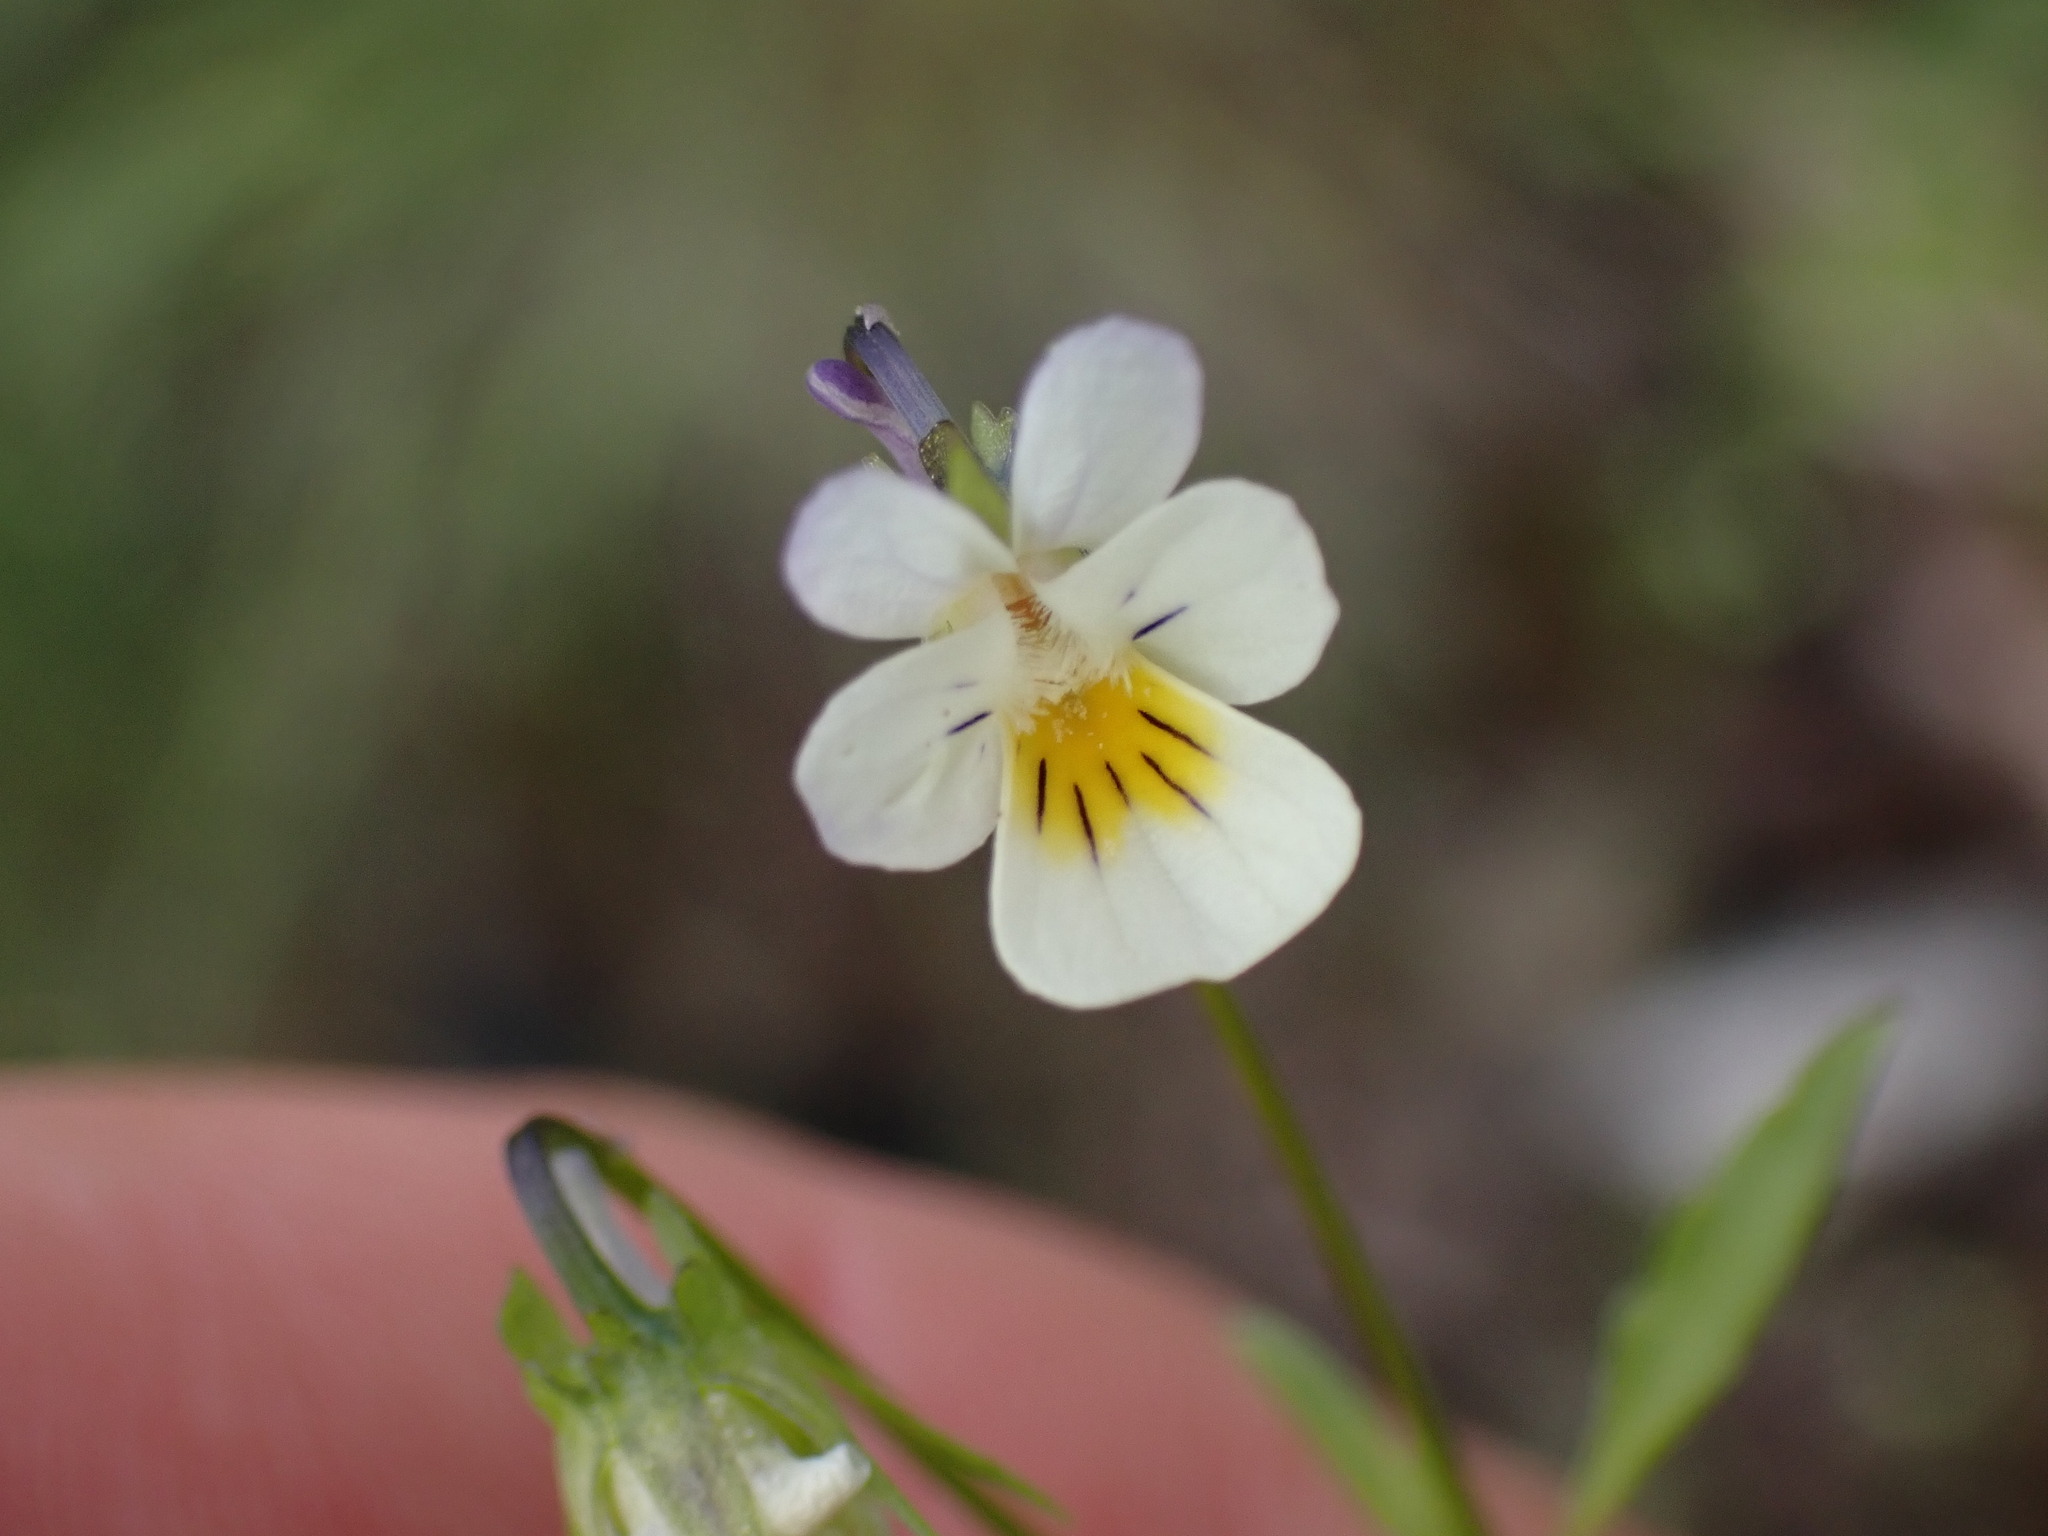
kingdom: Plantae
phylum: Tracheophyta
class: Magnoliopsida
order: Malpighiales
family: Violaceae
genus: Viola
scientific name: Viola arvensis
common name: Field pansy
